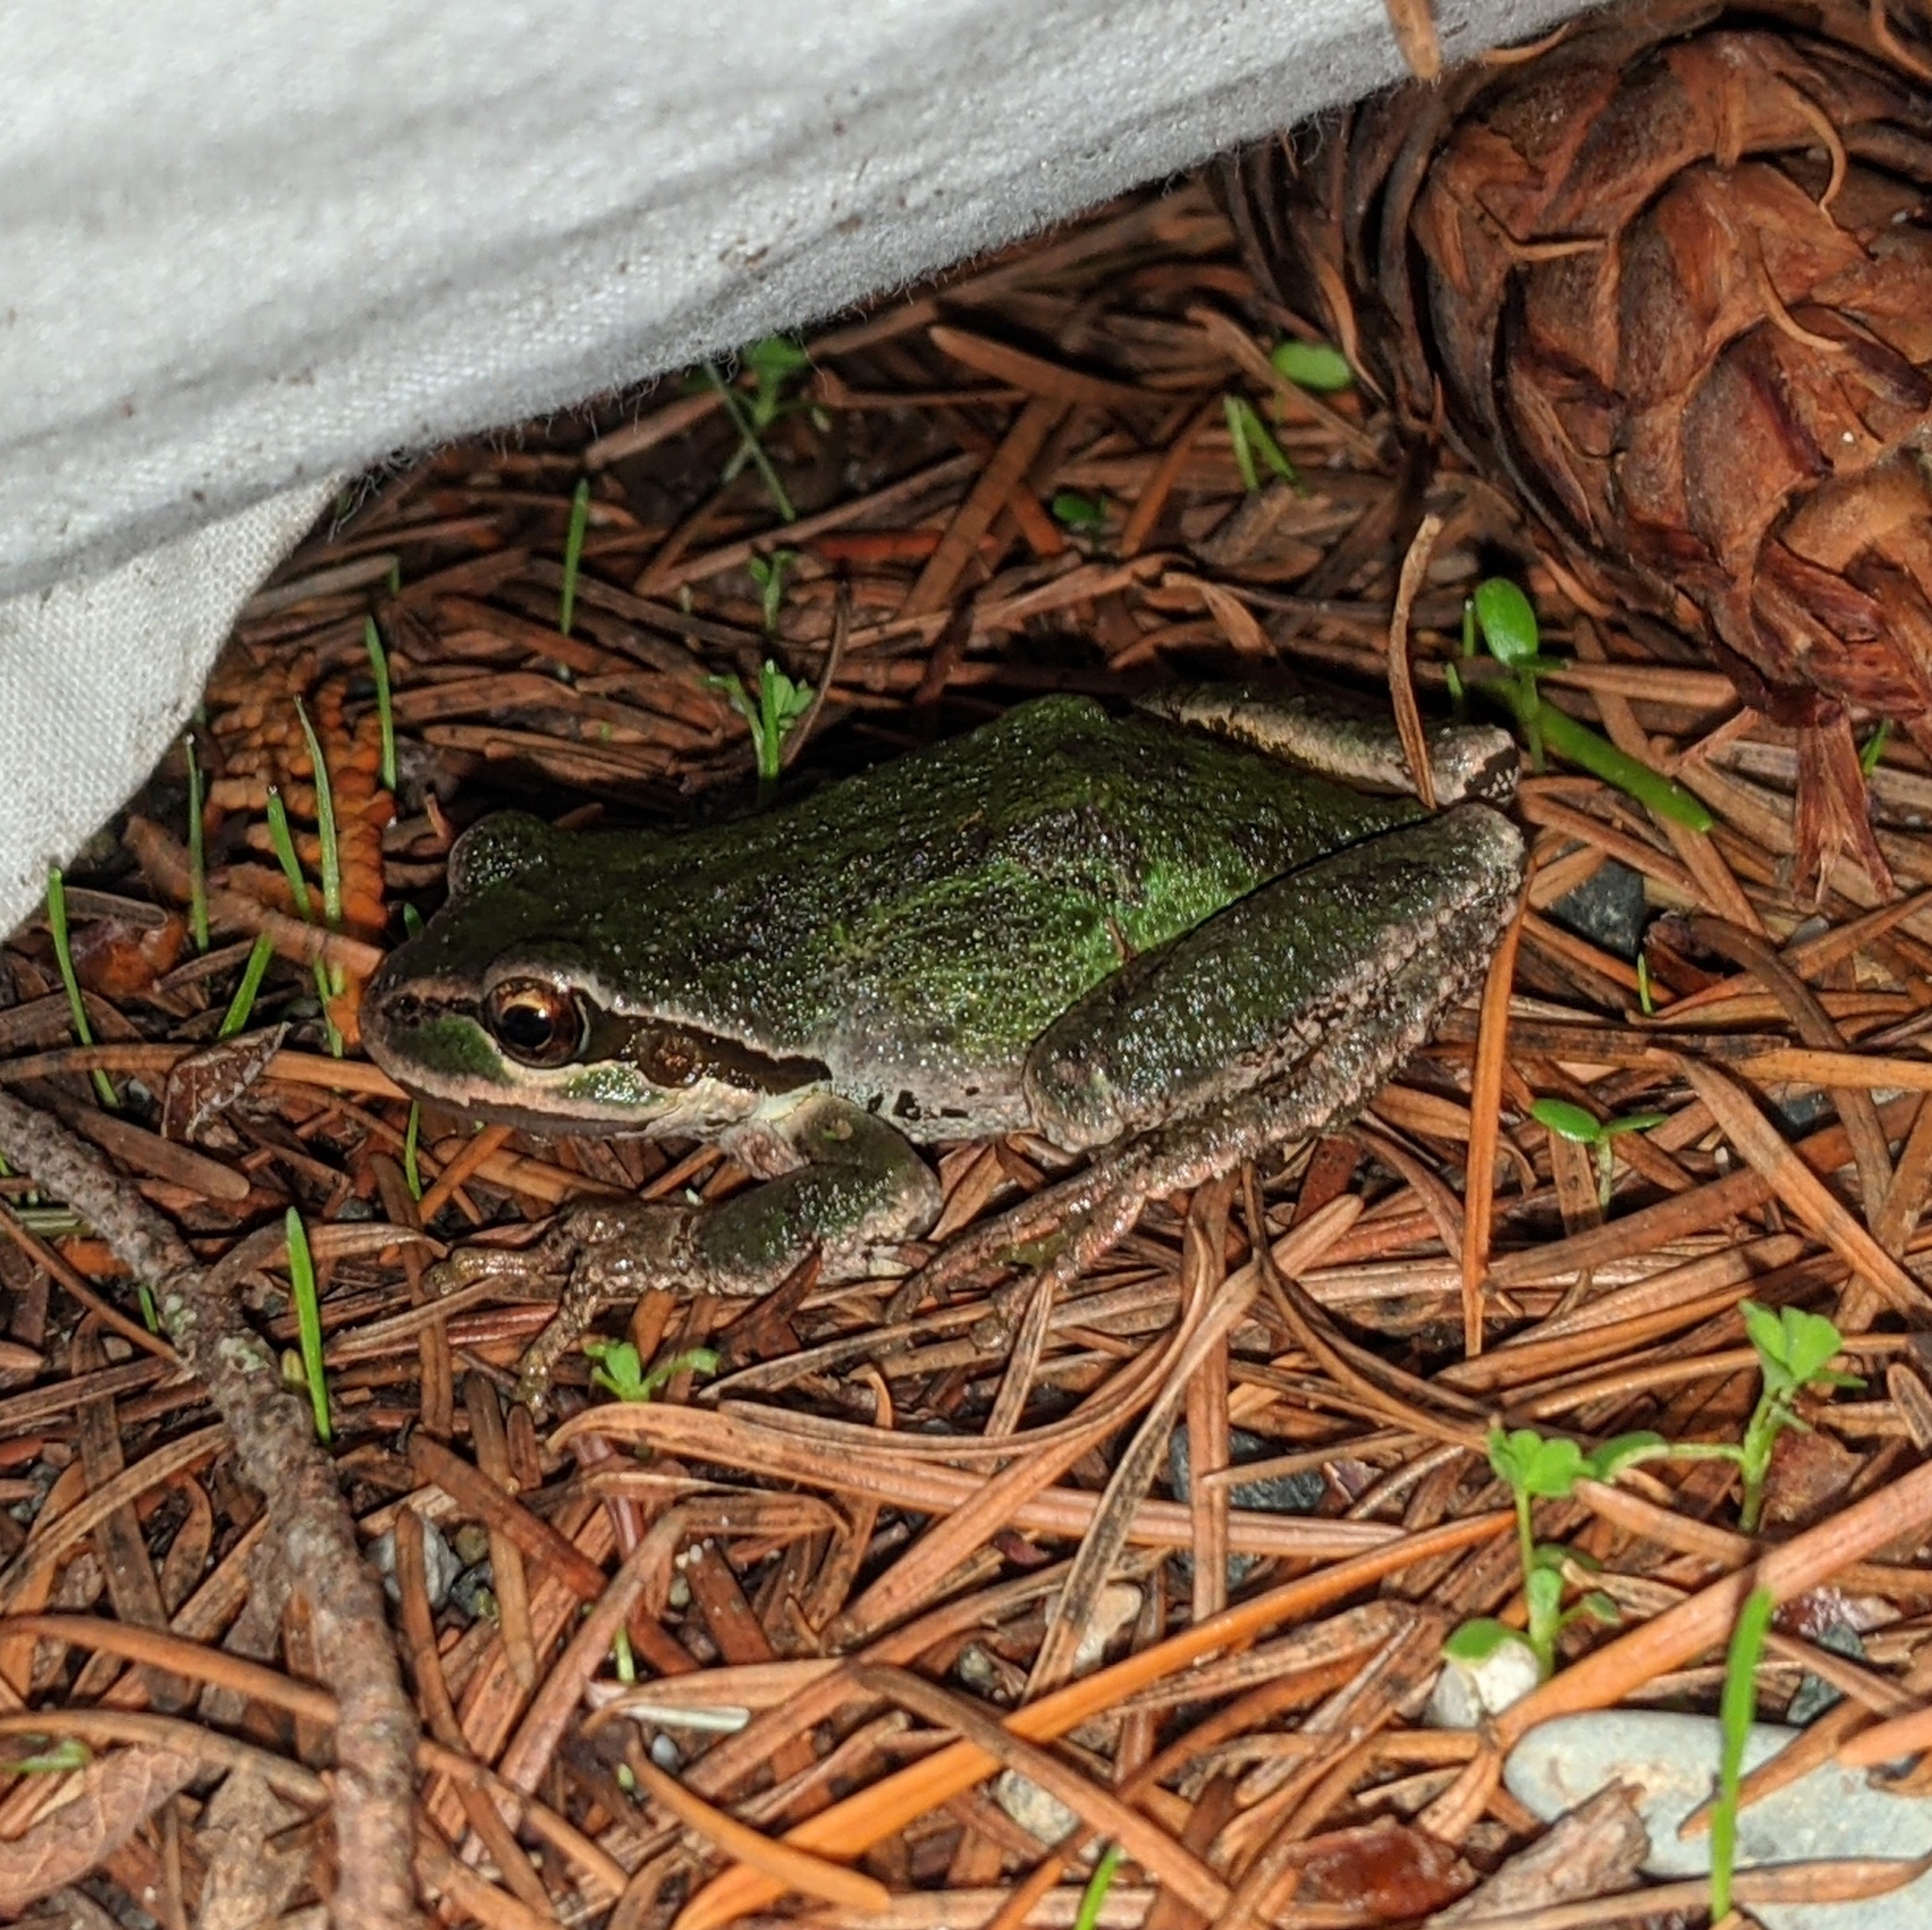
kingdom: Animalia
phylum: Chordata
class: Amphibia
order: Anura
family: Hylidae
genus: Pseudacris
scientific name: Pseudacris regilla
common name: Pacific chorus frog
